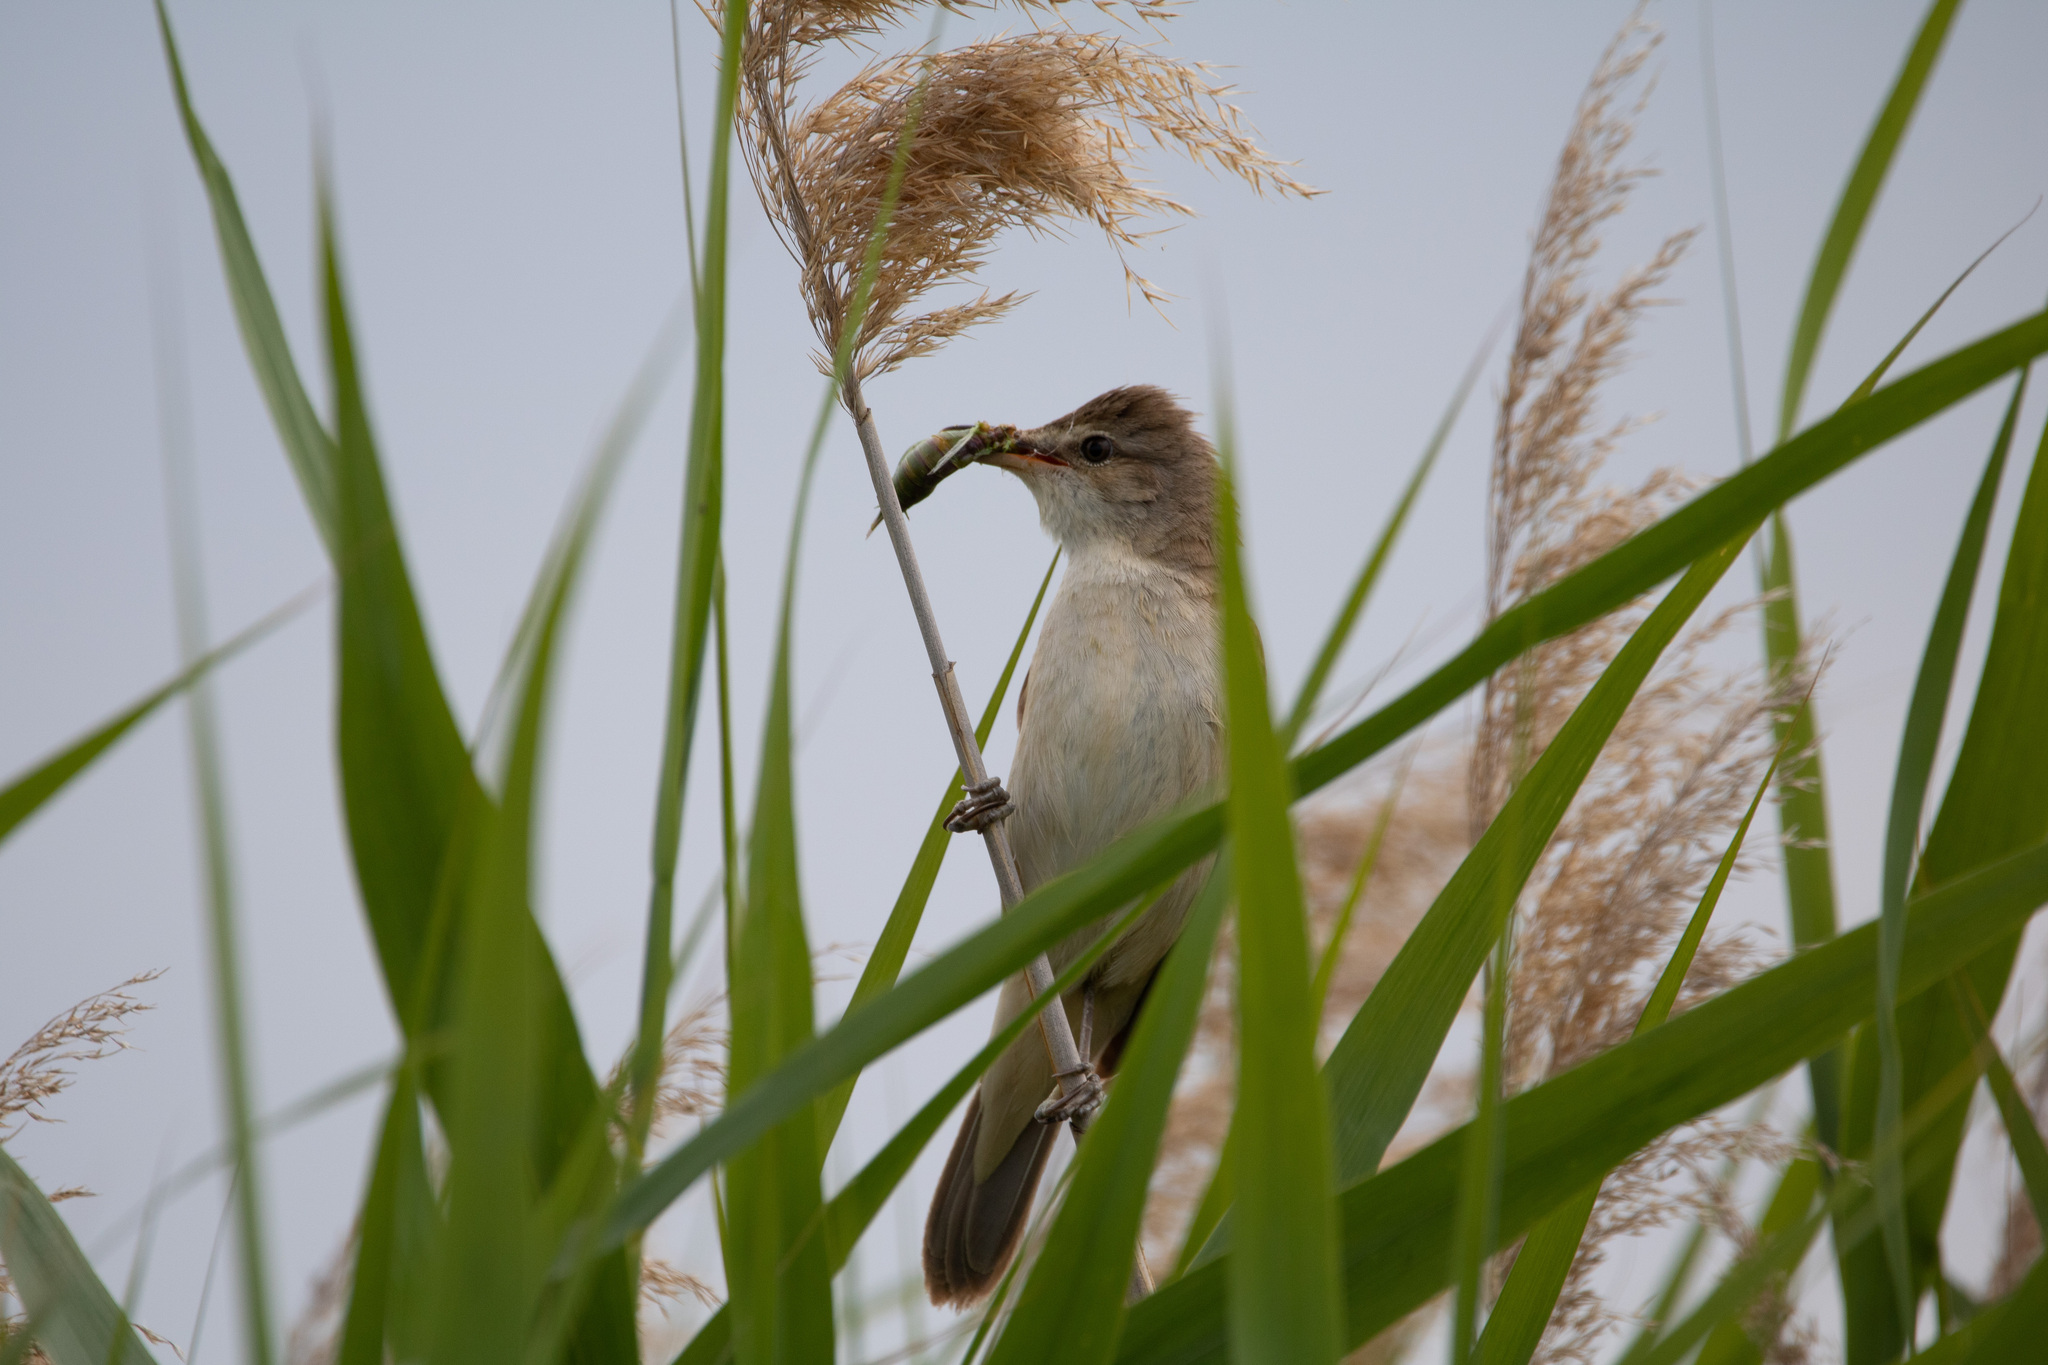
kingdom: Animalia
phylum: Chordata
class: Aves
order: Passeriformes
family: Acrocephalidae
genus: Acrocephalus
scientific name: Acrocephalus arundinaceus
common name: Great reed warbler
